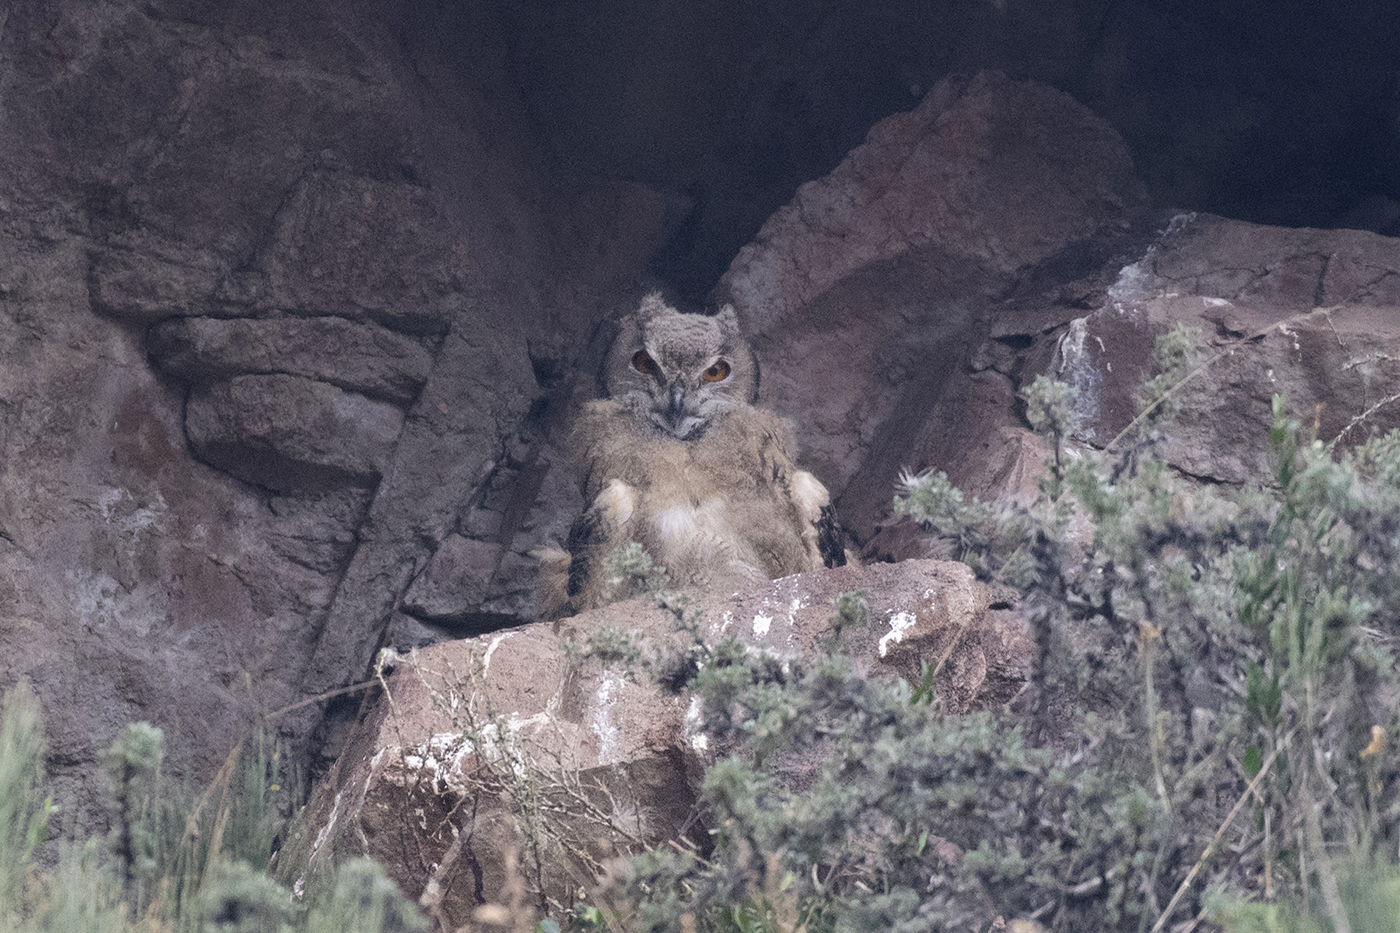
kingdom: Animalia
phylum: Chordata
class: Aves
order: Strigiformes
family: Strigidae
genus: Bubo
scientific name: Bubo bubo
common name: Eurasian eagle-owl
